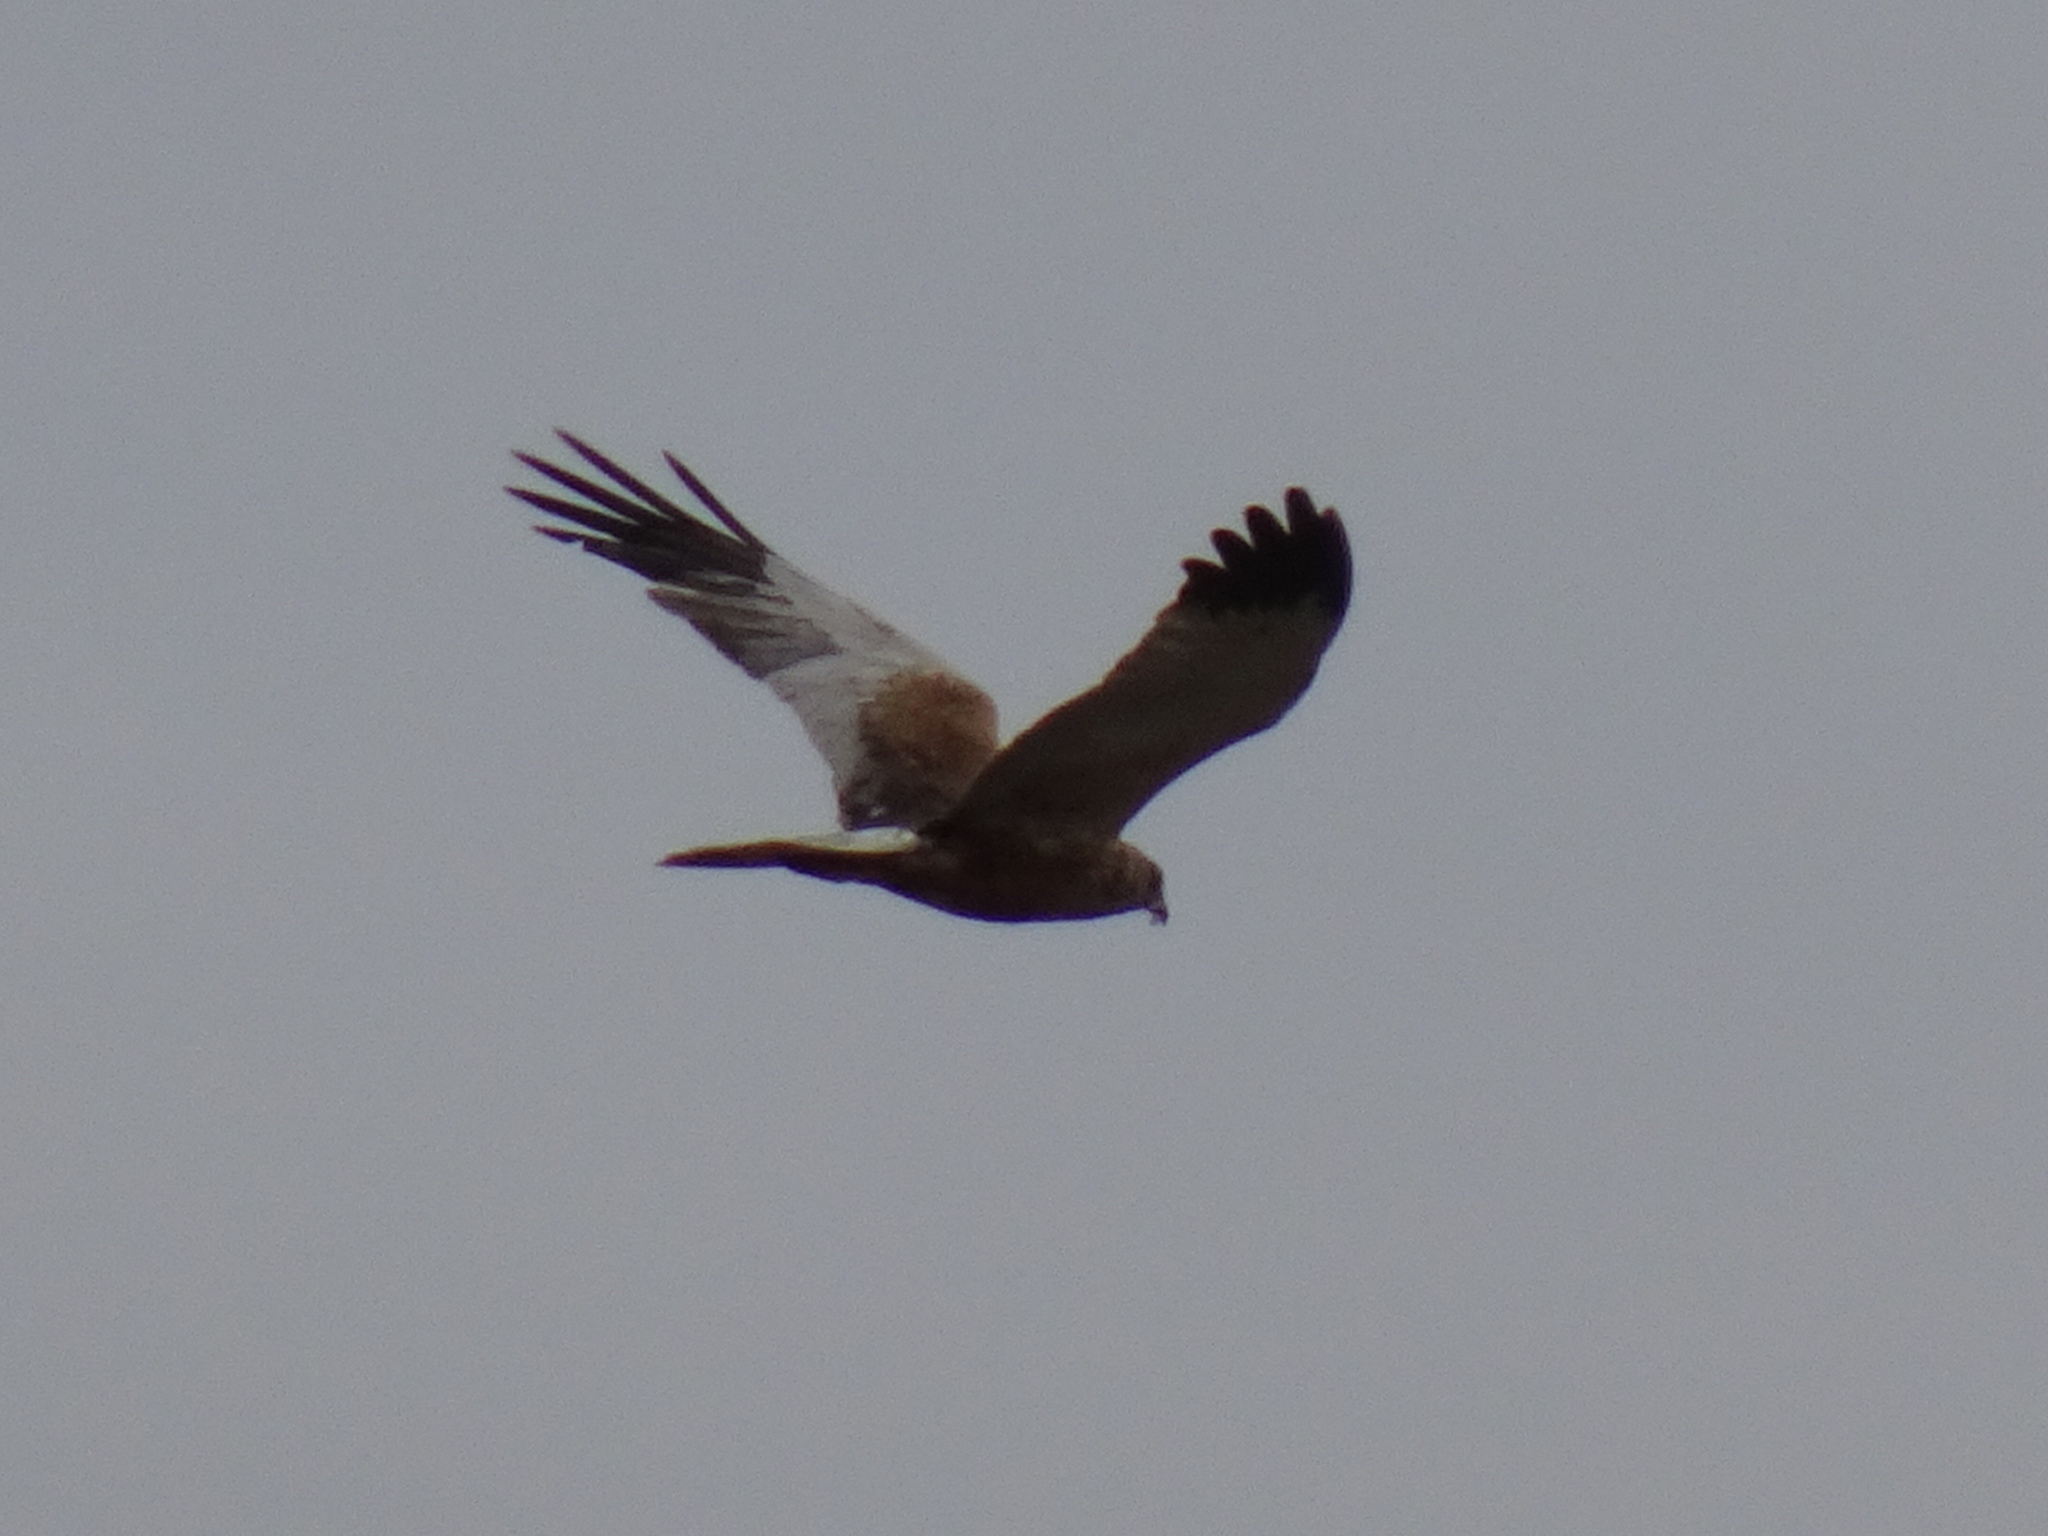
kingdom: Animalia
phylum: Chordata
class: Aves
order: Accipitriformes
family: Accipitridae
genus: Circus
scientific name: Circus aeruginosus
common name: Western marsh harrier
